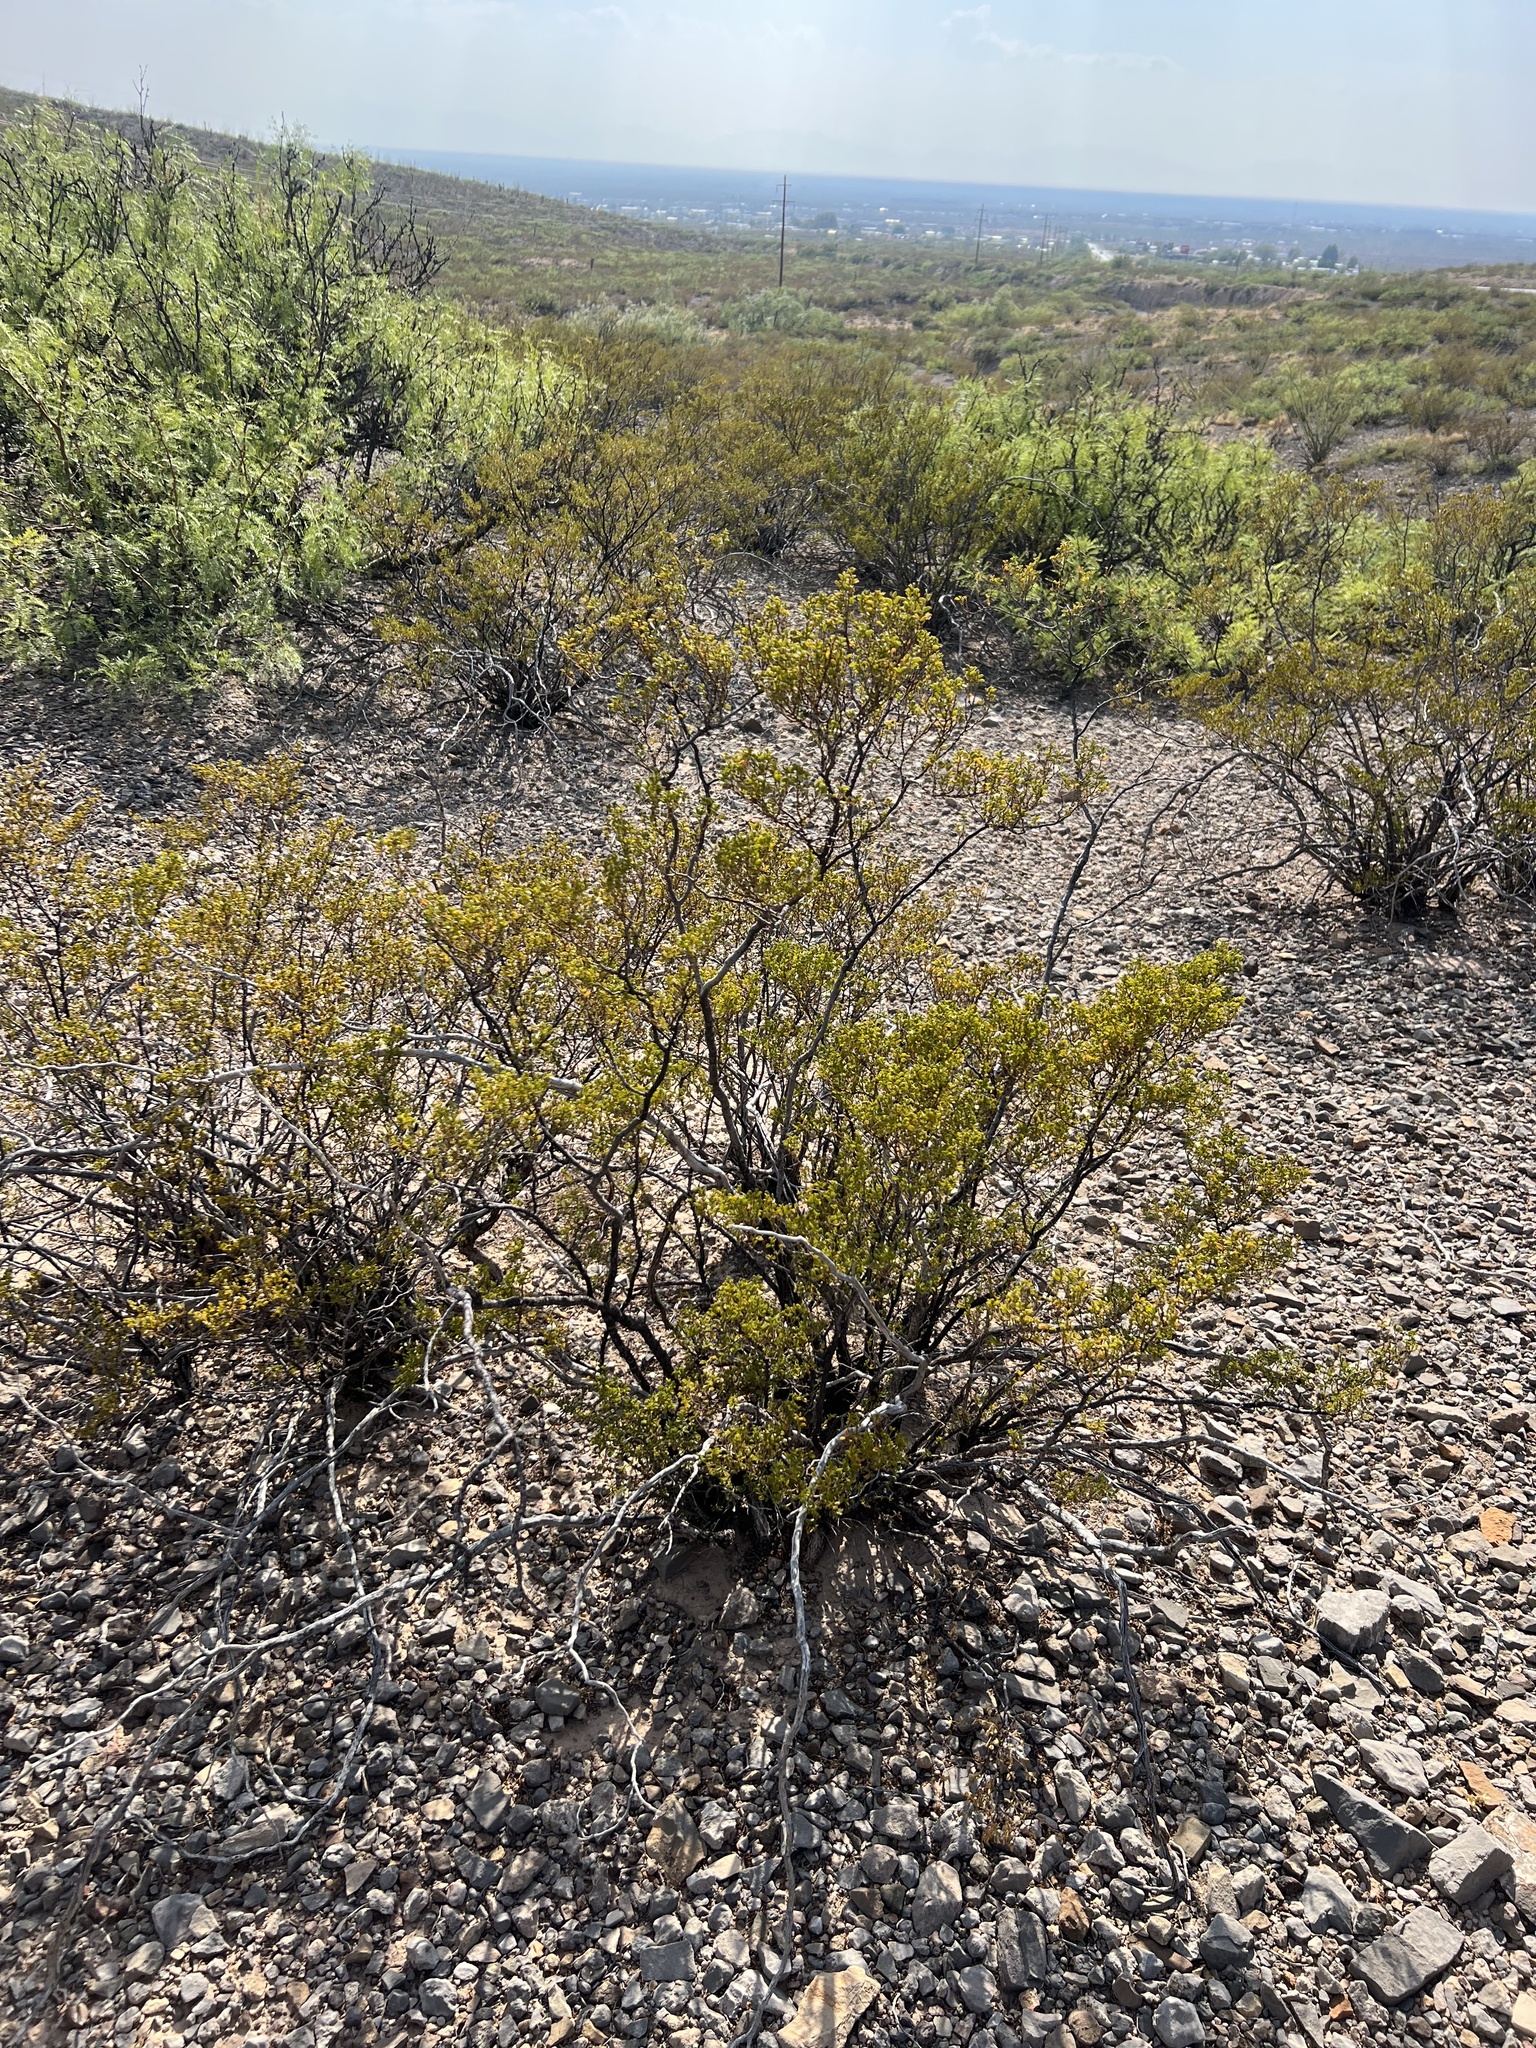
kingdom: Plantae
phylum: Tracheophyta
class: Magnoliopsida
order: Zygophyllales
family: Zygophyllaceae
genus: Larrea
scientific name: Larrea tridentata
